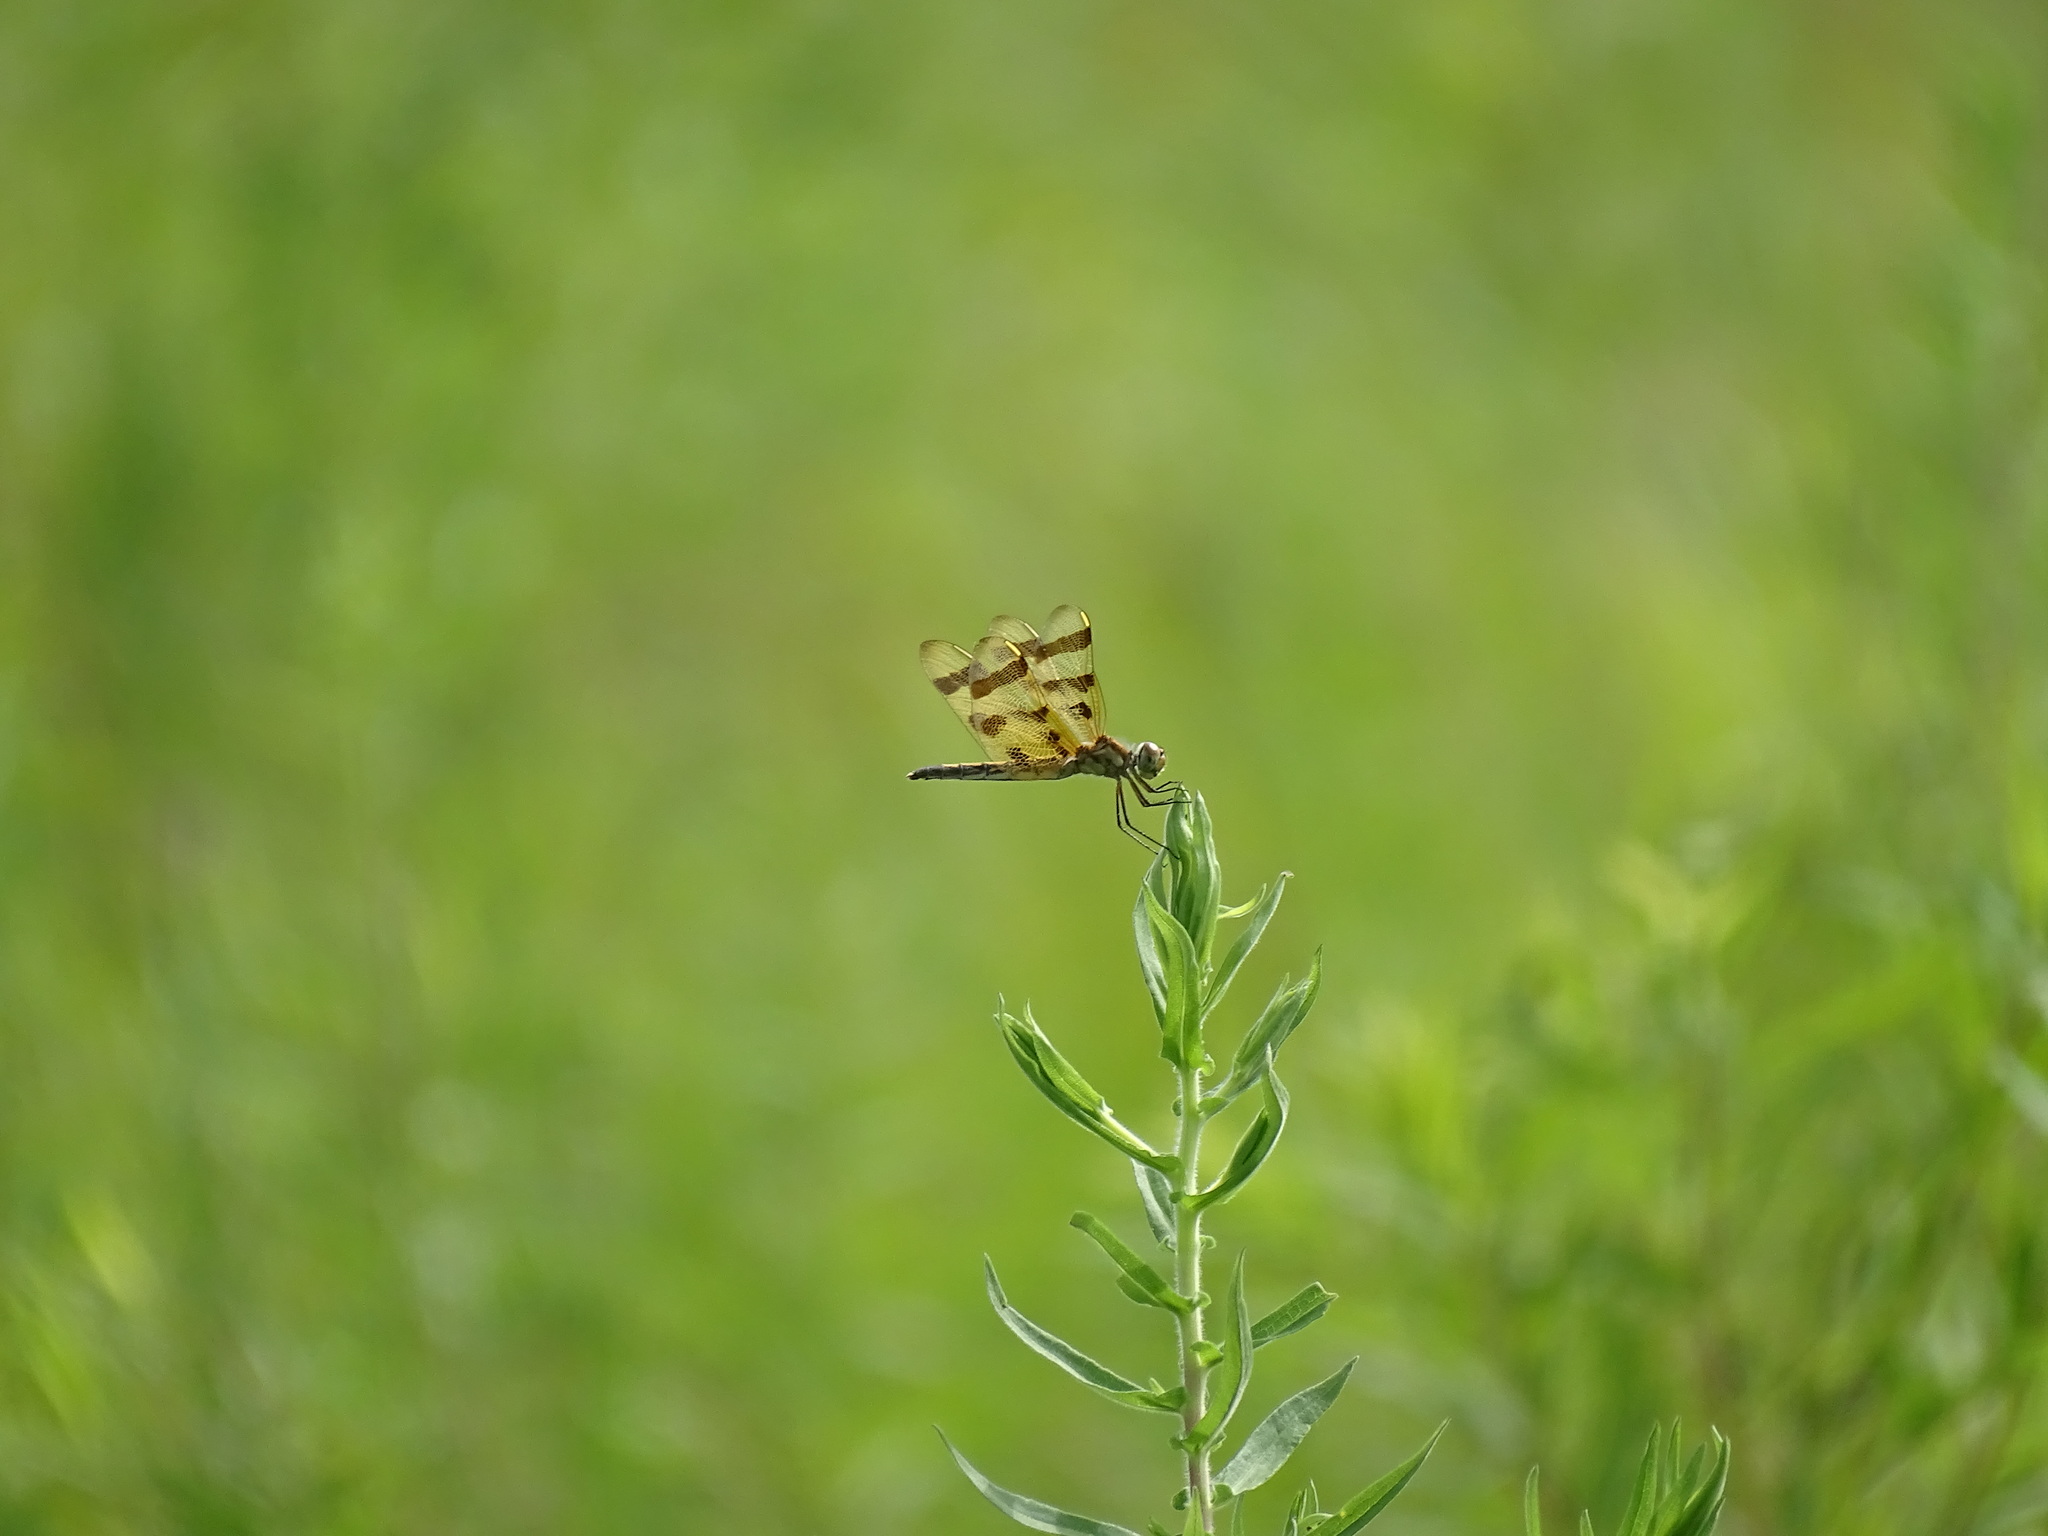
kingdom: Animalia
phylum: Arthropoda
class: Insecta
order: Odonata
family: Libellulidae
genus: Celithemis
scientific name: Celithemis eponina
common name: Halloween pennant
